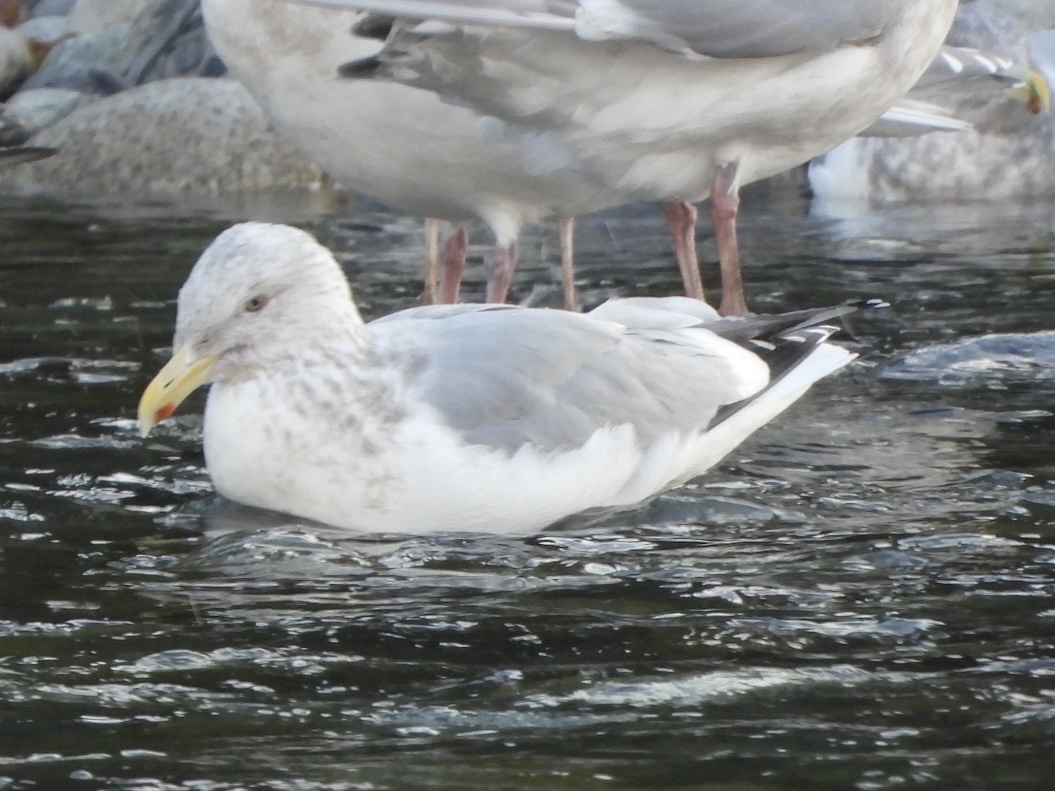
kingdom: Animalia
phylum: Chordata
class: Aves
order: Charadriiformes
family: Laridae
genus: Larus
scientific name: Larus argentatus
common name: Herring gull
